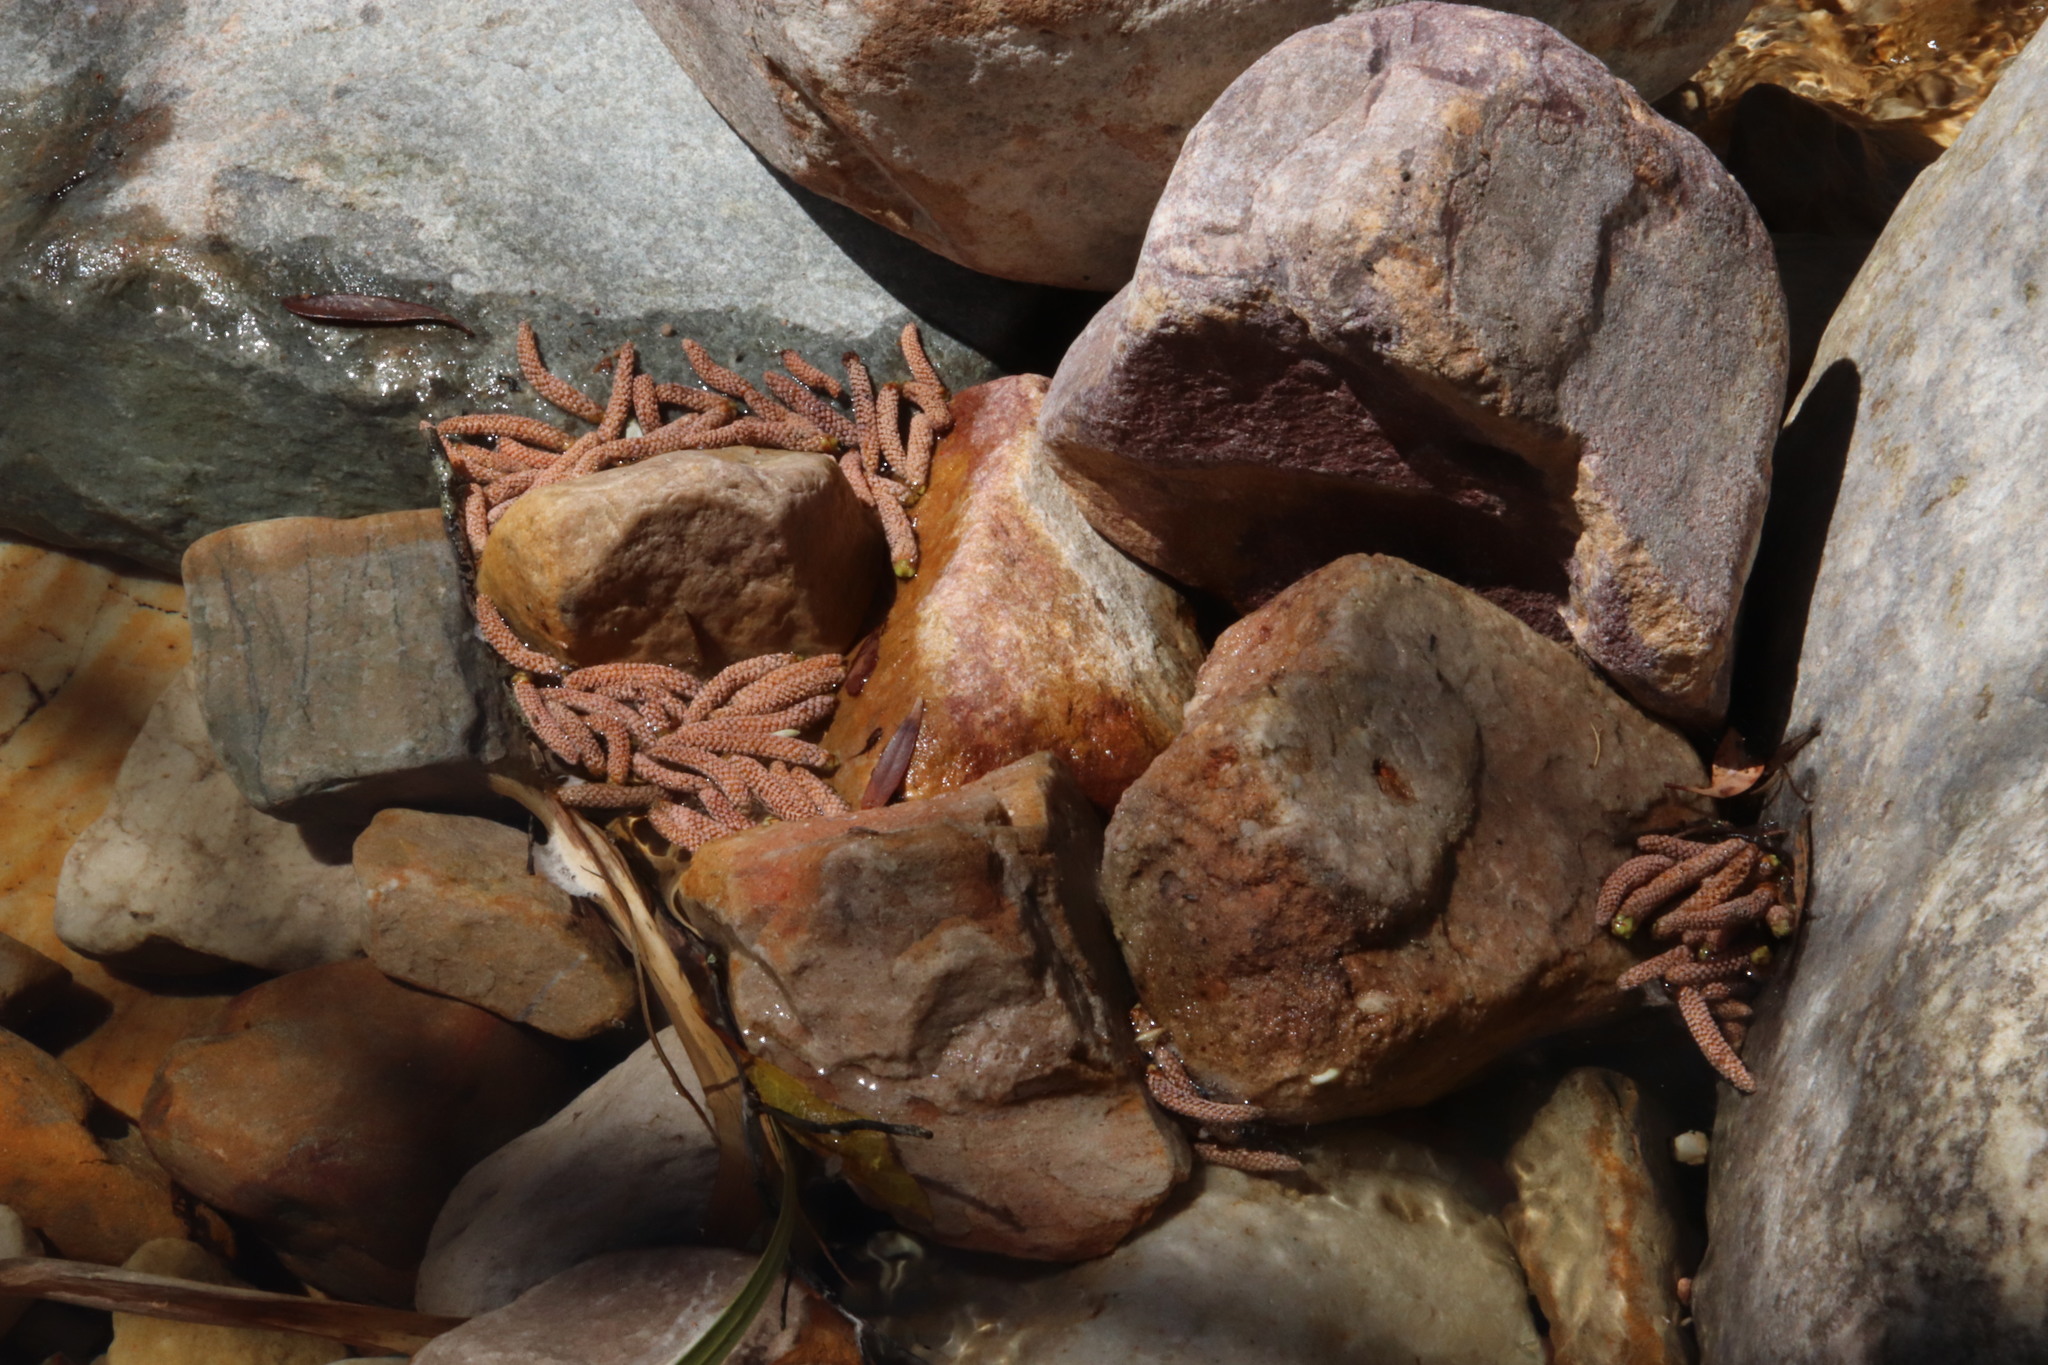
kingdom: Plantae
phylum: Tracheophyta
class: Pinopsida
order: Pinales
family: Podocarpaceae
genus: Podocarpus
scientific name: Podocarpus elongatus
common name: Breede river yellowwood
